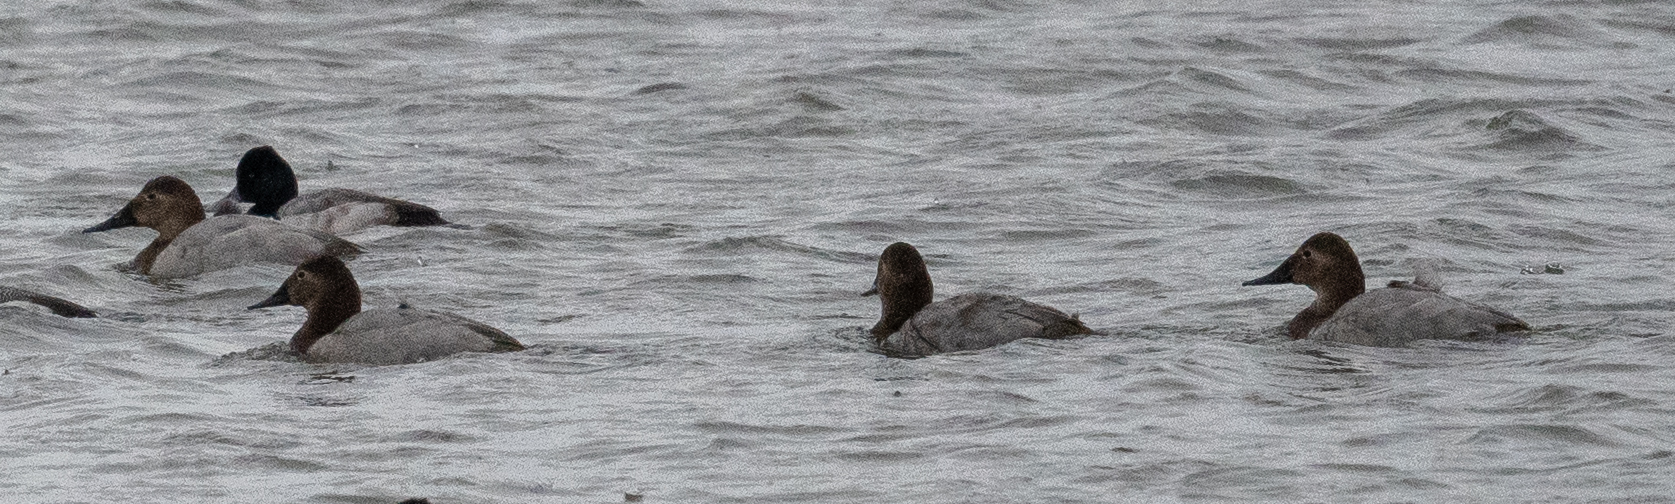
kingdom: Animalia
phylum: Chordata
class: Aves
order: Anseriformes
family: Anatidae
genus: Aythya
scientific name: Aythya valisineria
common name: Canvasback
